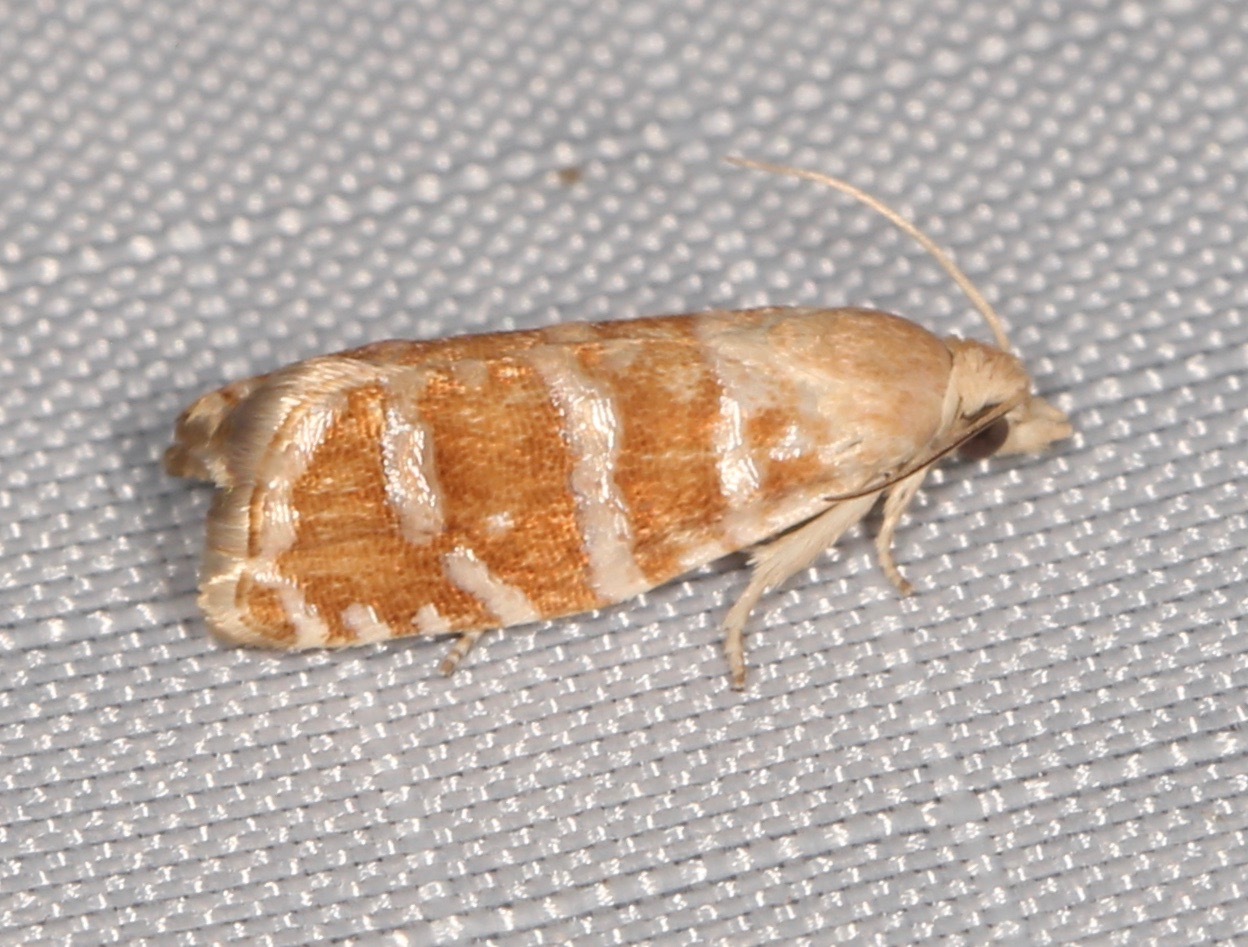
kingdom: Animalia
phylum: Arthropoda
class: Insecta
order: Lepidoptera
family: Tortricidae
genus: Cydia
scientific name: Cydia anaranjada
